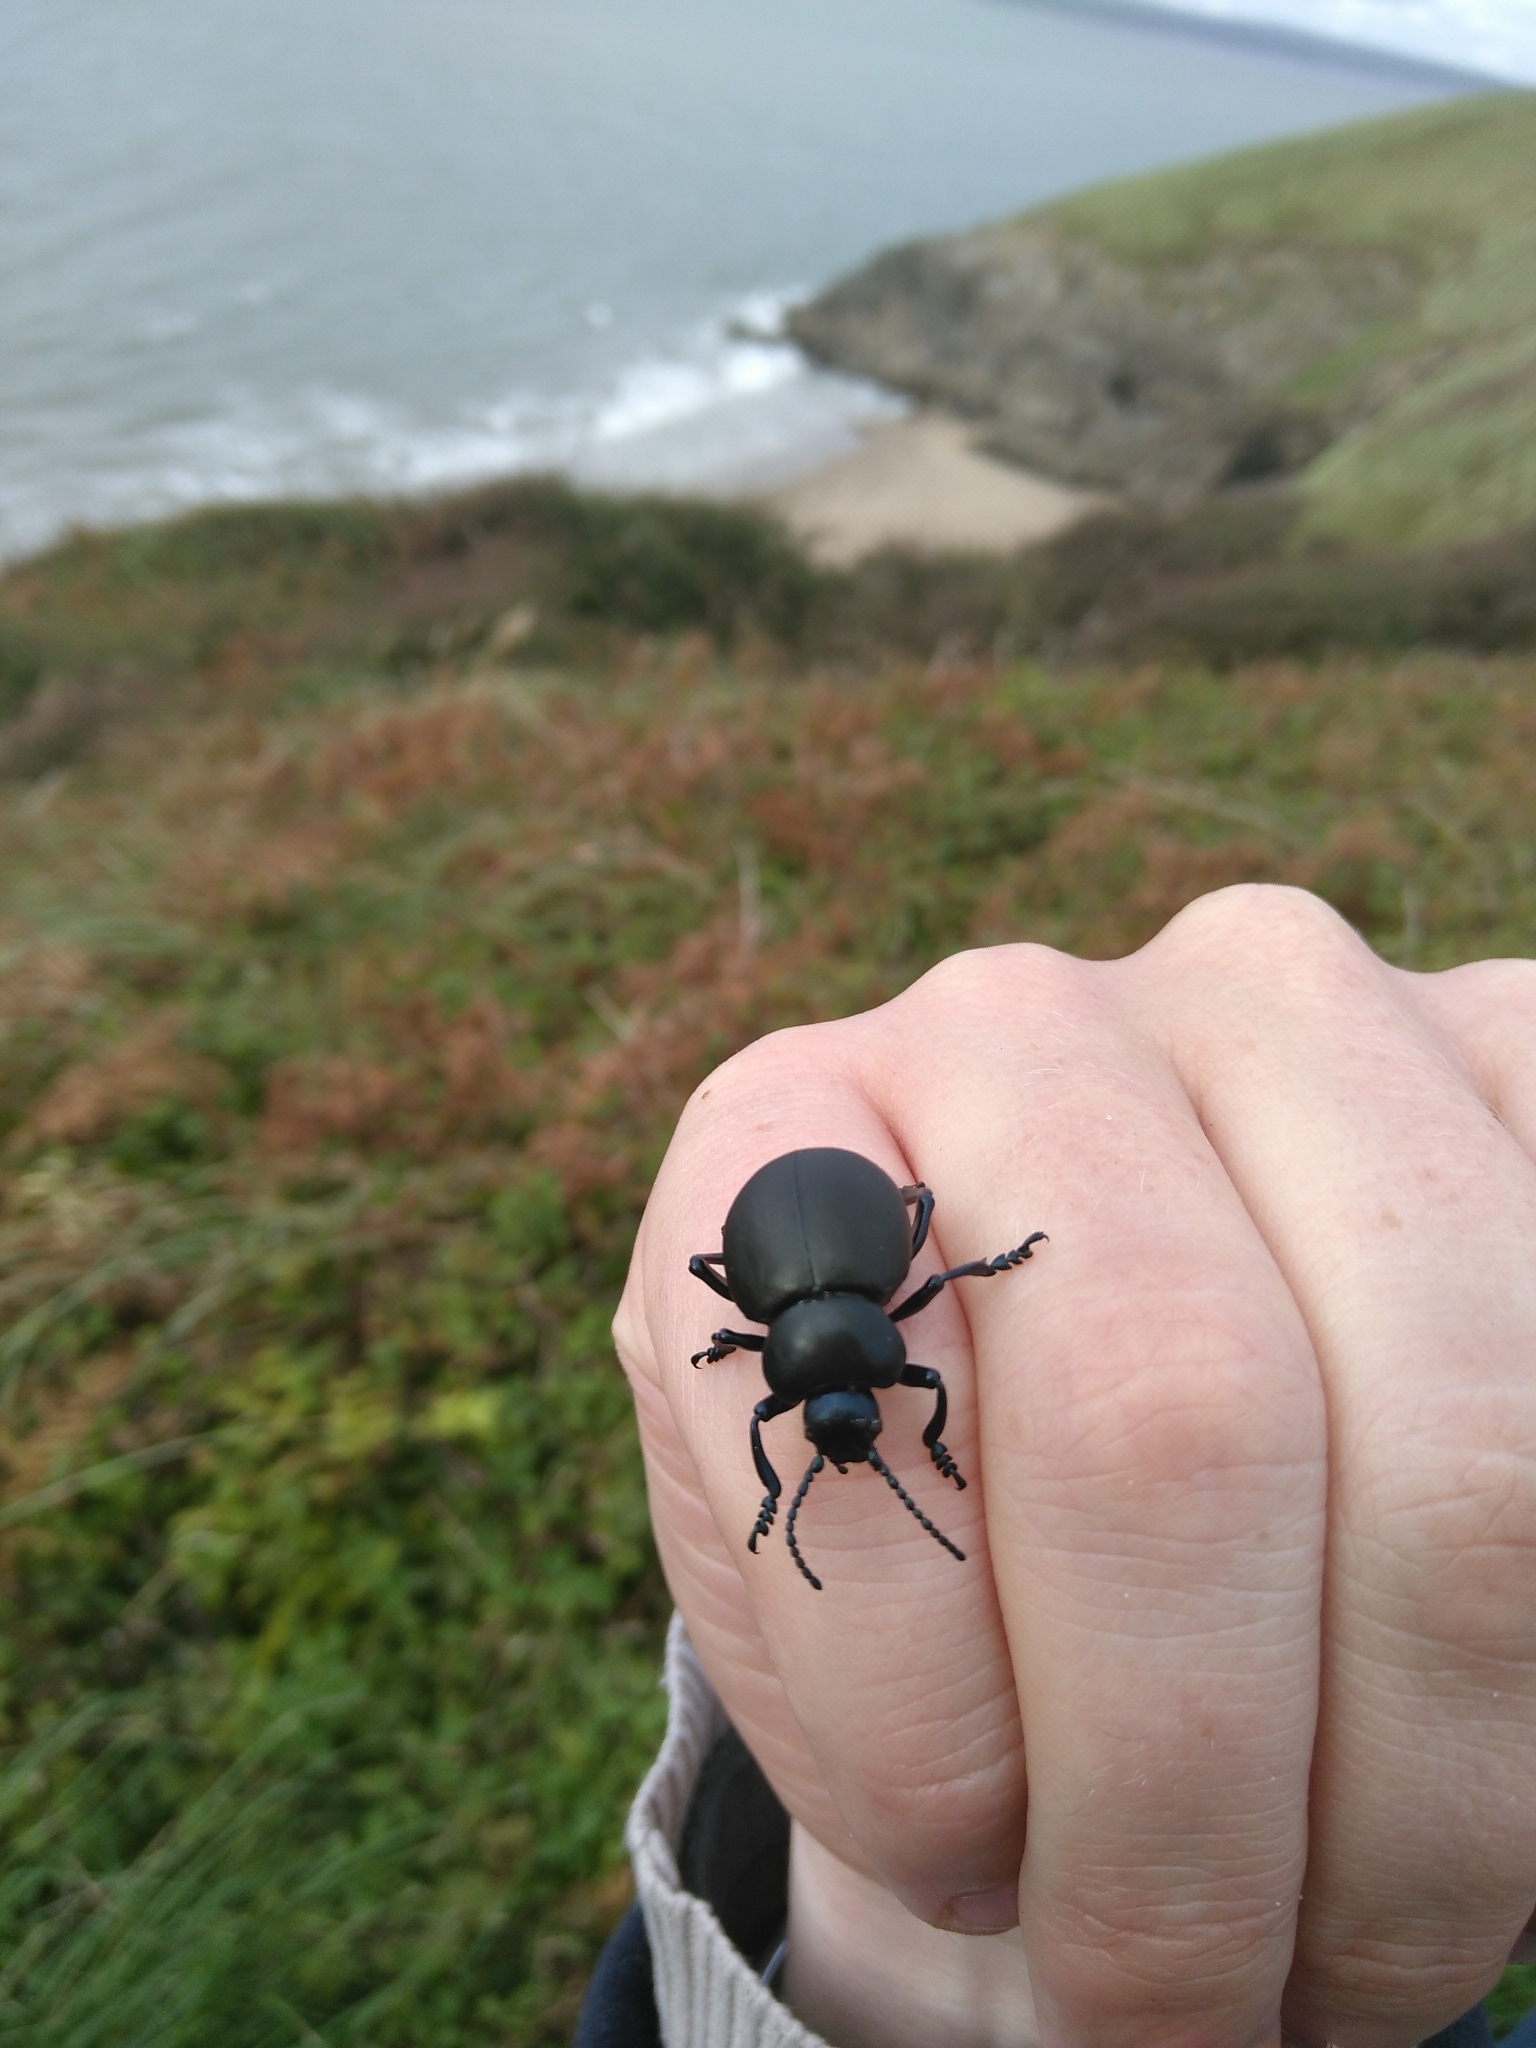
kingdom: Animalia
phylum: Arthropoda
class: Insecta
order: Coleoptera
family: Chrysomelidae
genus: Timarcha
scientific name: Timarcha tenebricosa
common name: Bloody-nosed beetle
